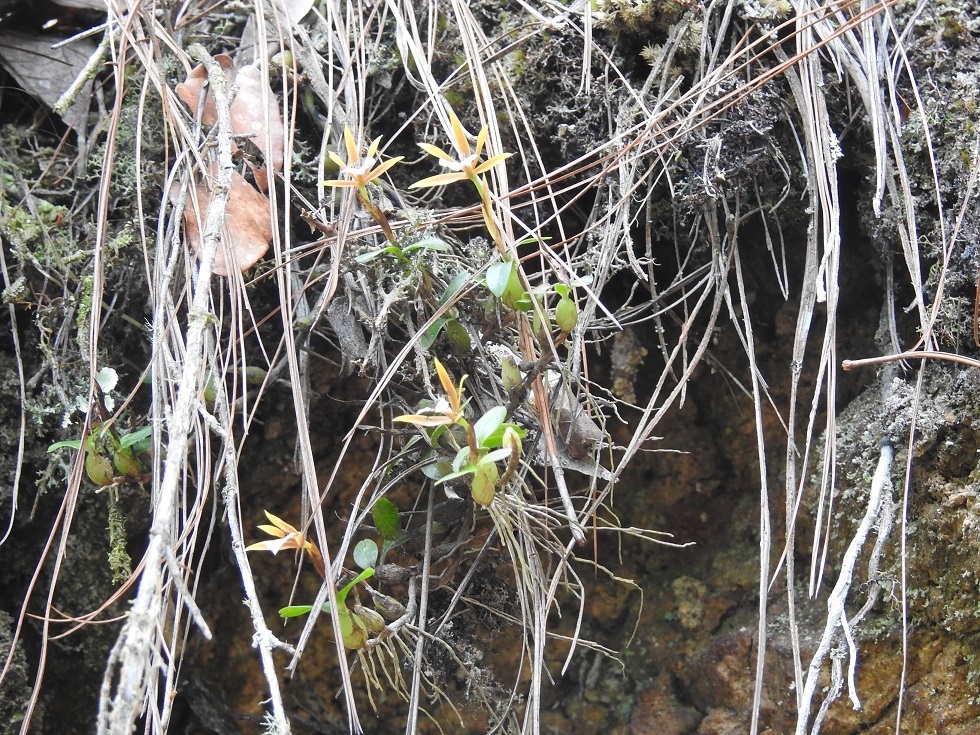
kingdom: Plantae
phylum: Tracheophyta
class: Liliopsida
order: Asparagales
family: Orchidaceae
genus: Dinema
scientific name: Dinema polybulbon
